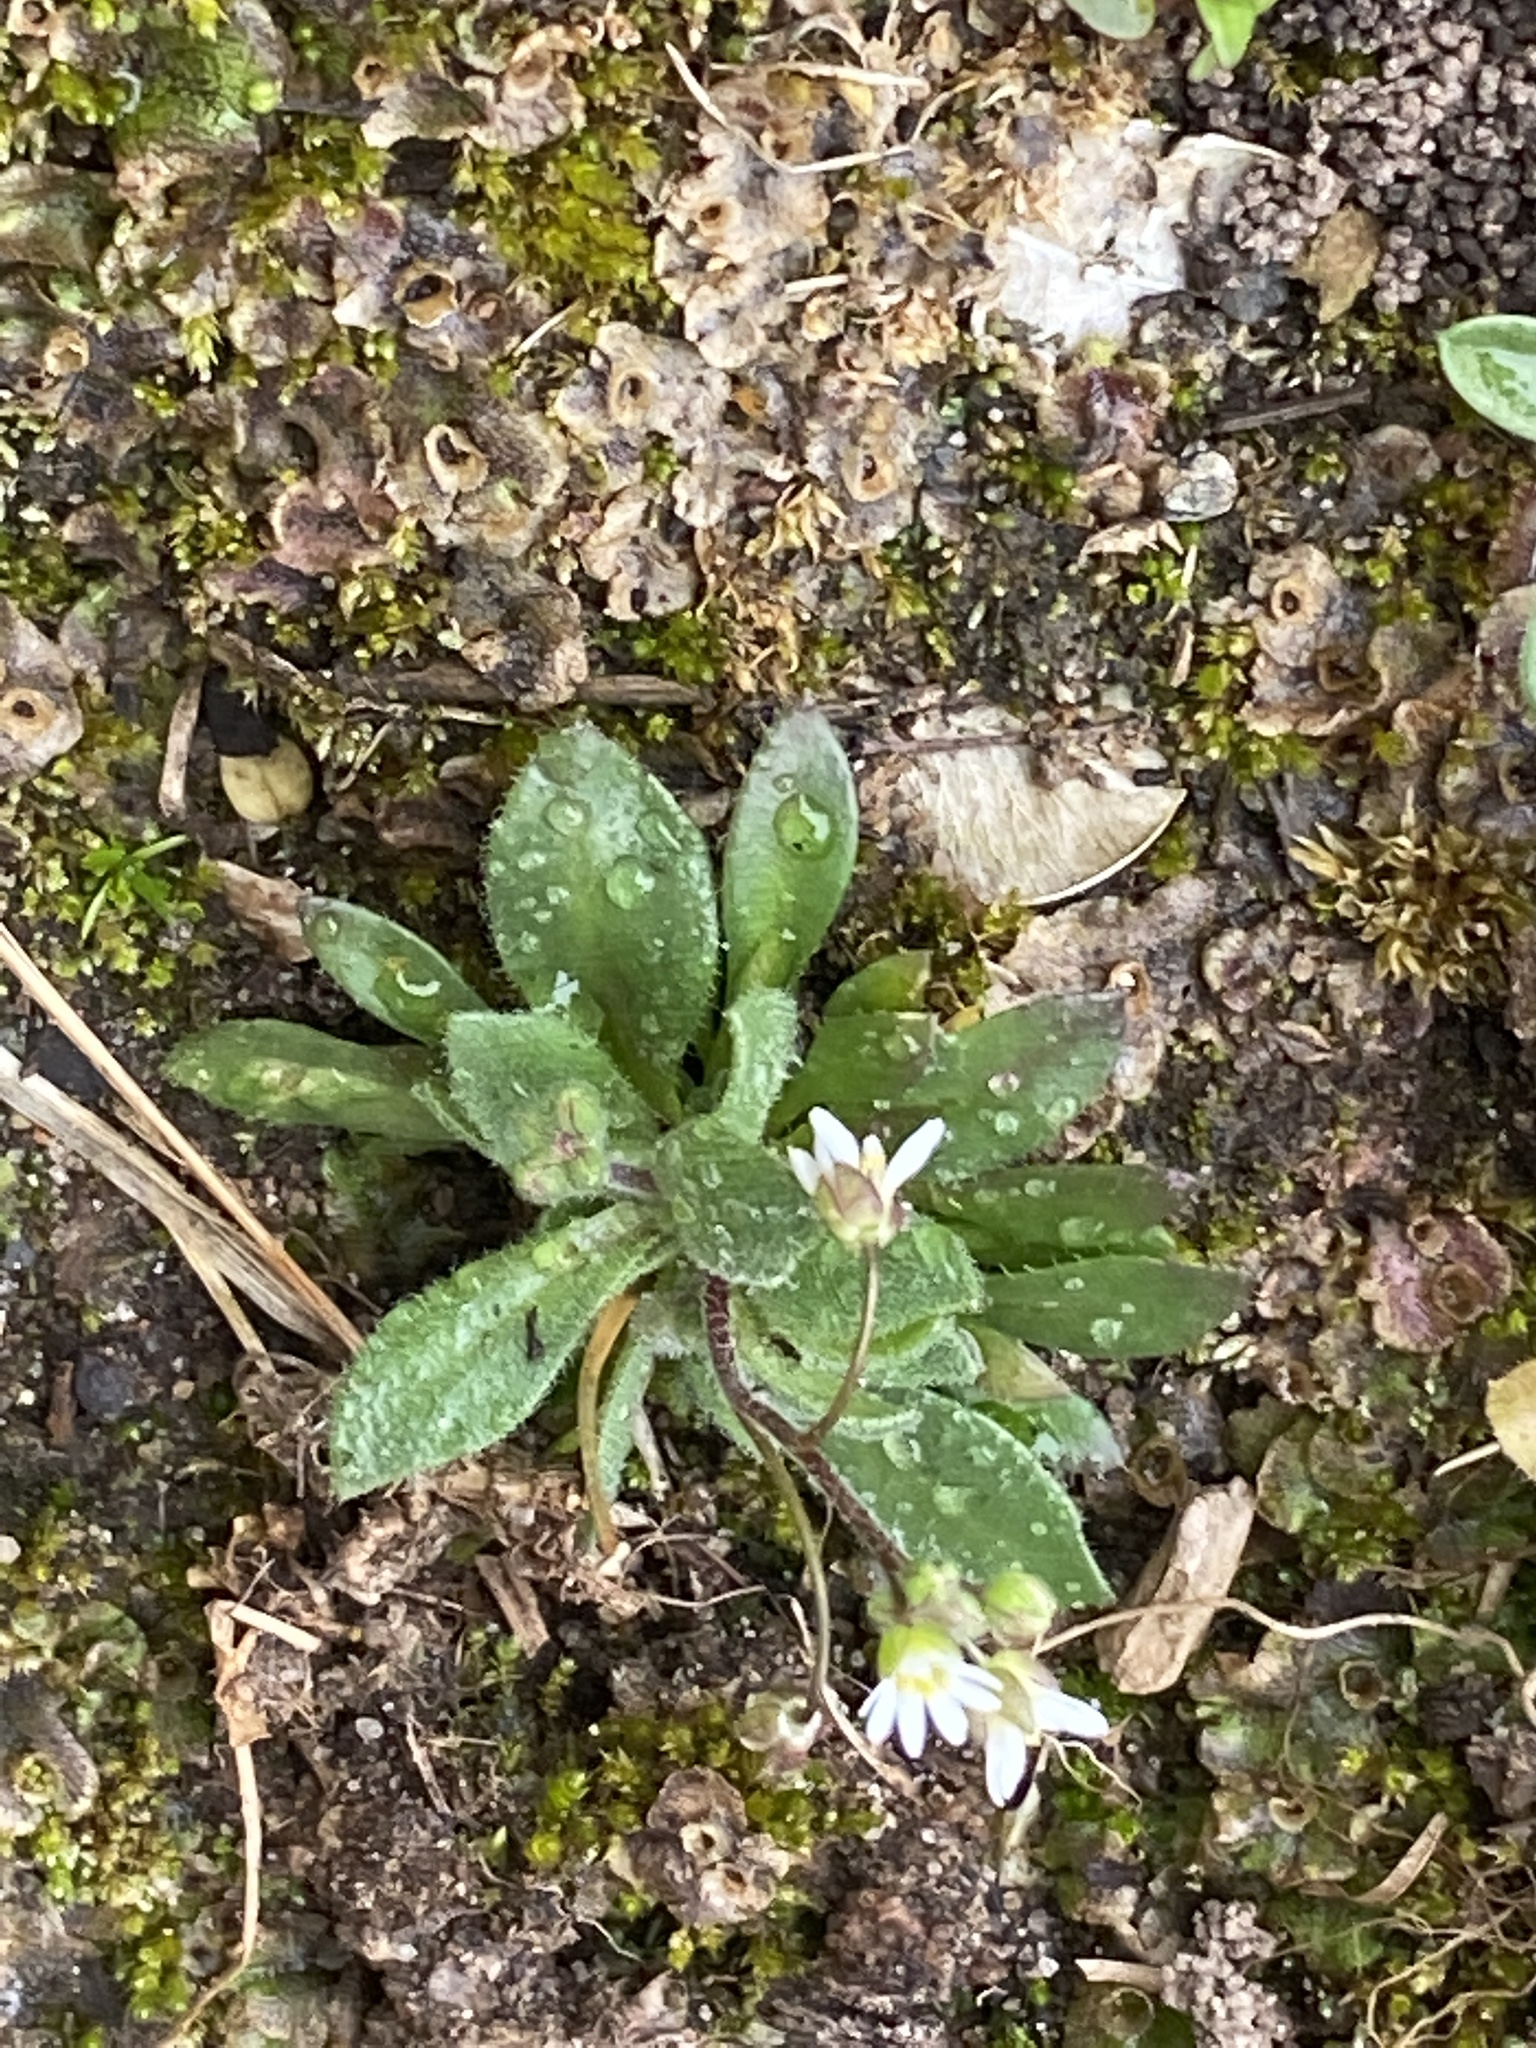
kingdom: Plantae
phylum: Tracheophyta
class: Magnoliopsida
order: Brassicales
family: Brassicaceae
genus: Draba
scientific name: Draba verna
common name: Spring draba
